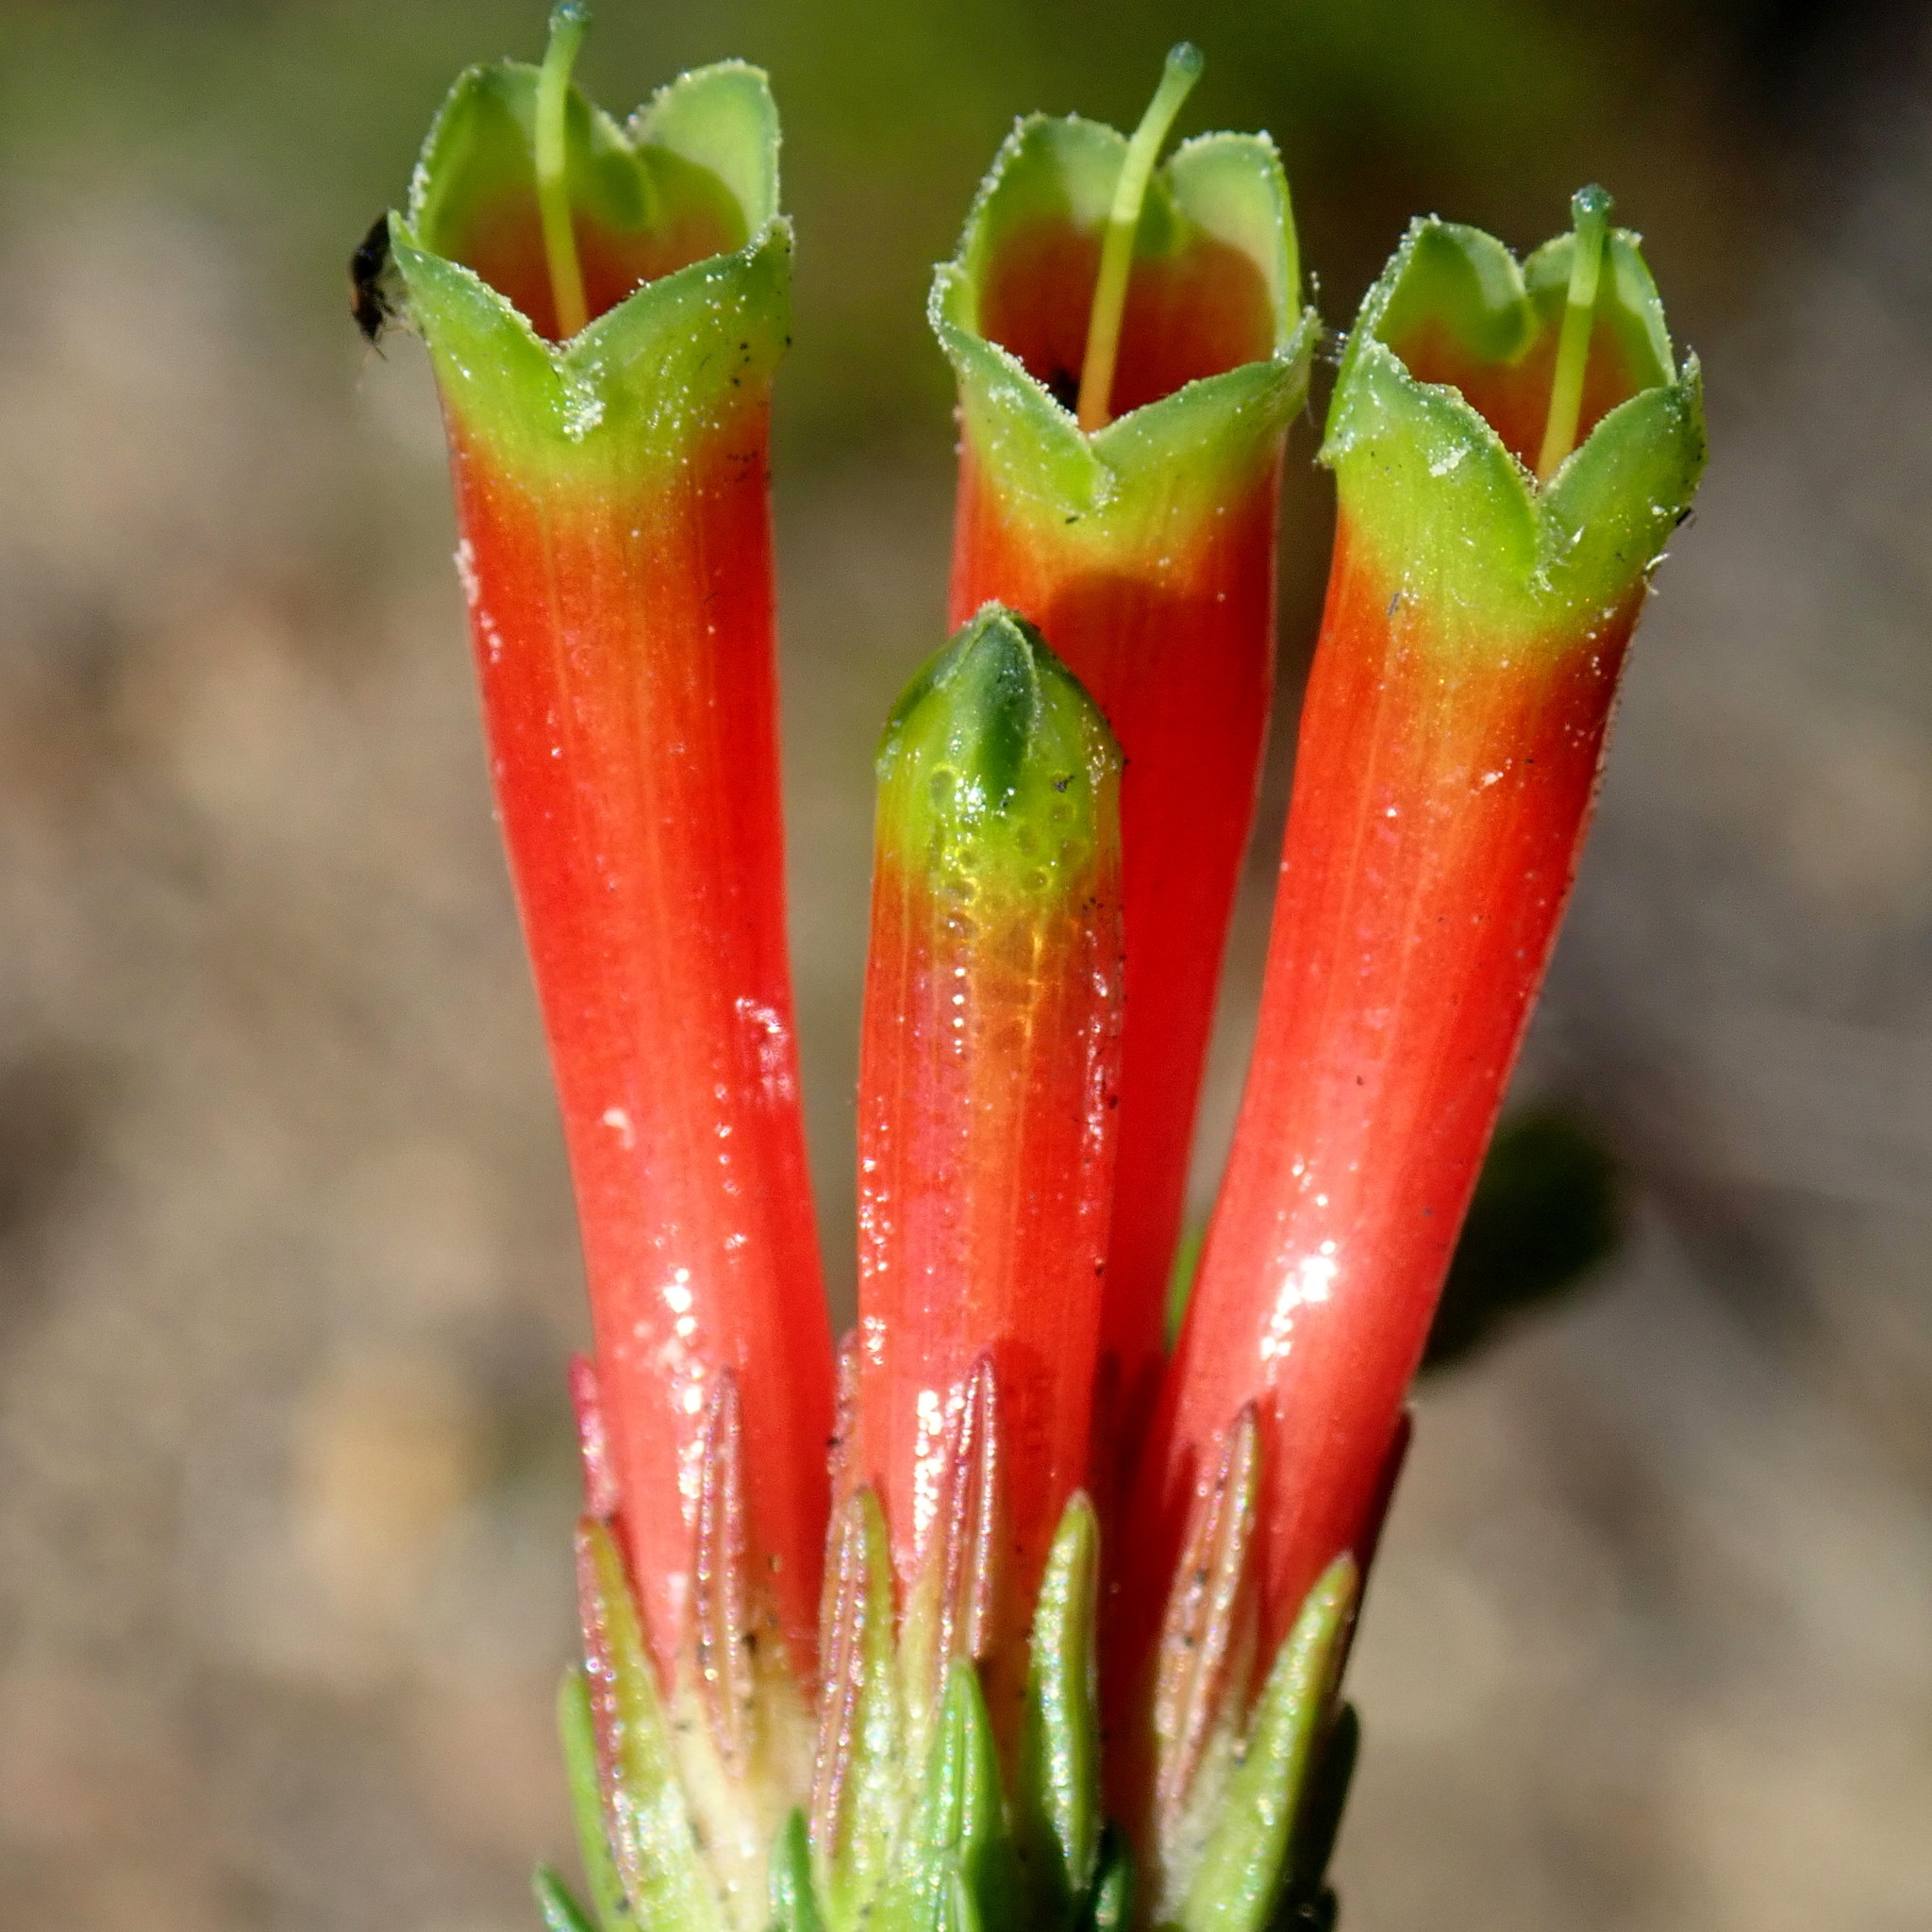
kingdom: Plantae
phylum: Tracheophyta
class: Magnoliopsida
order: Ericales
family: Ericaceae
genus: Erica
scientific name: Erica unicolor
